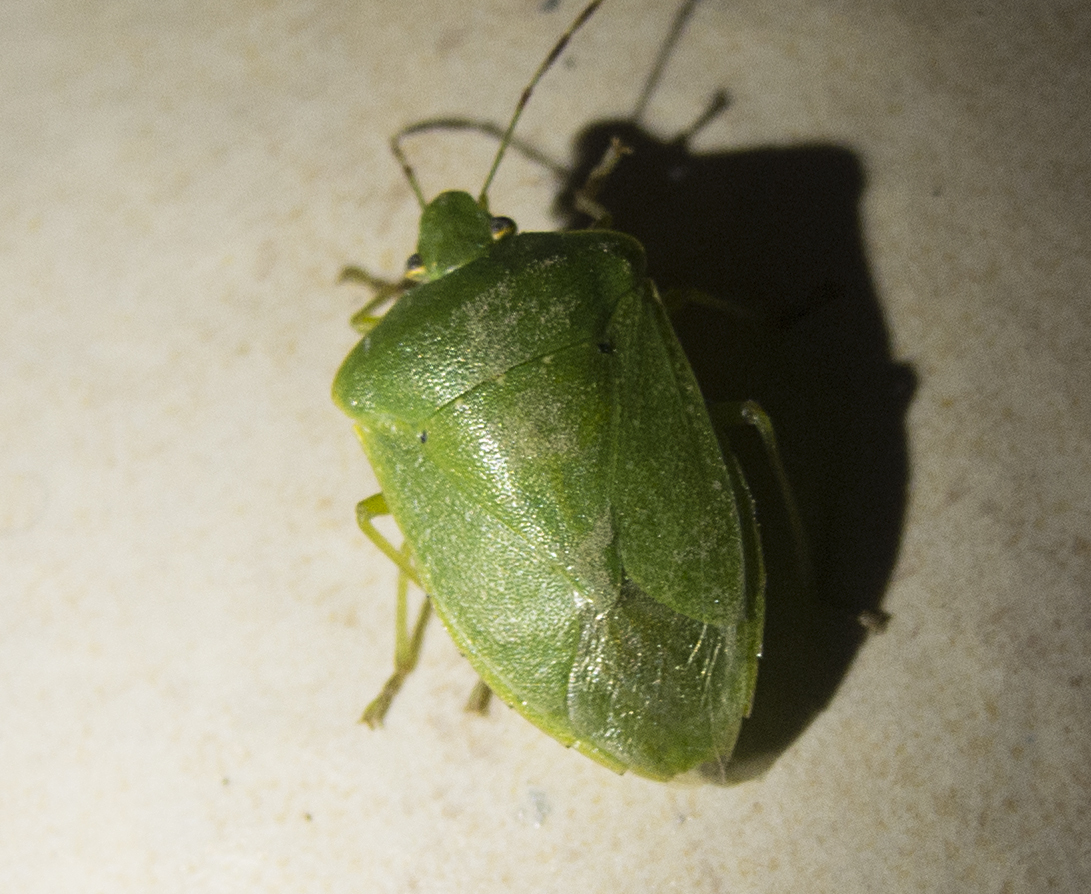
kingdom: Animalia
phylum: Arthropoda
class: Insecta
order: Hemiptera
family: Pentatomidae
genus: Nezara
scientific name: Nezara viridula
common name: Southern green stink bug
